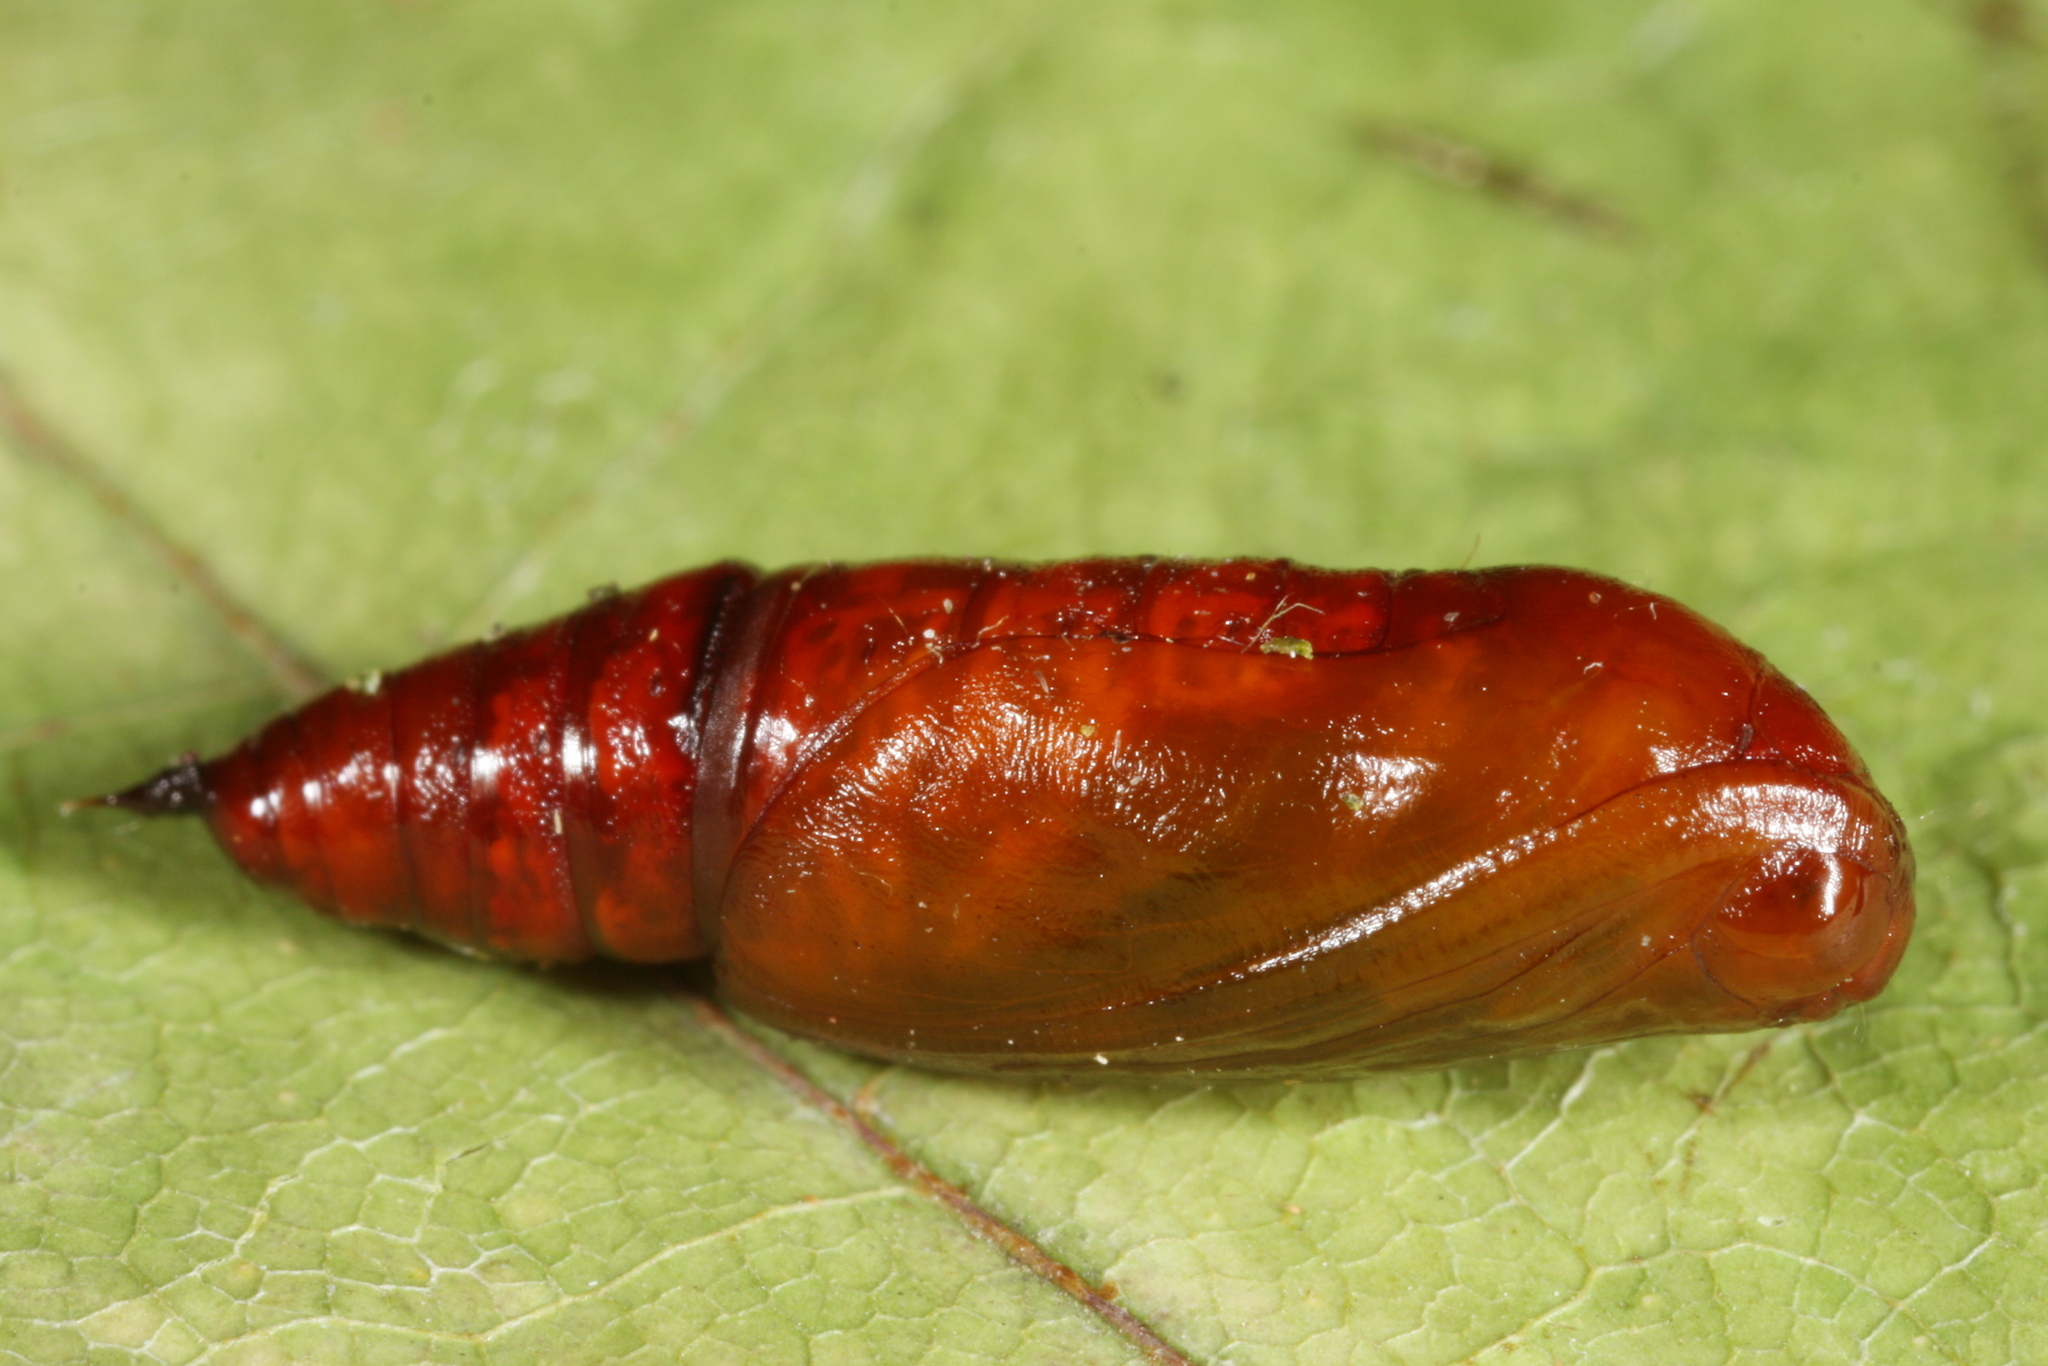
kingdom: Animalia
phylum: Arthropoda
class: Insecta
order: Lepidoptera
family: Geometridae
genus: Alcis
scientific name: Alcis repandata
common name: Mottled beauty
